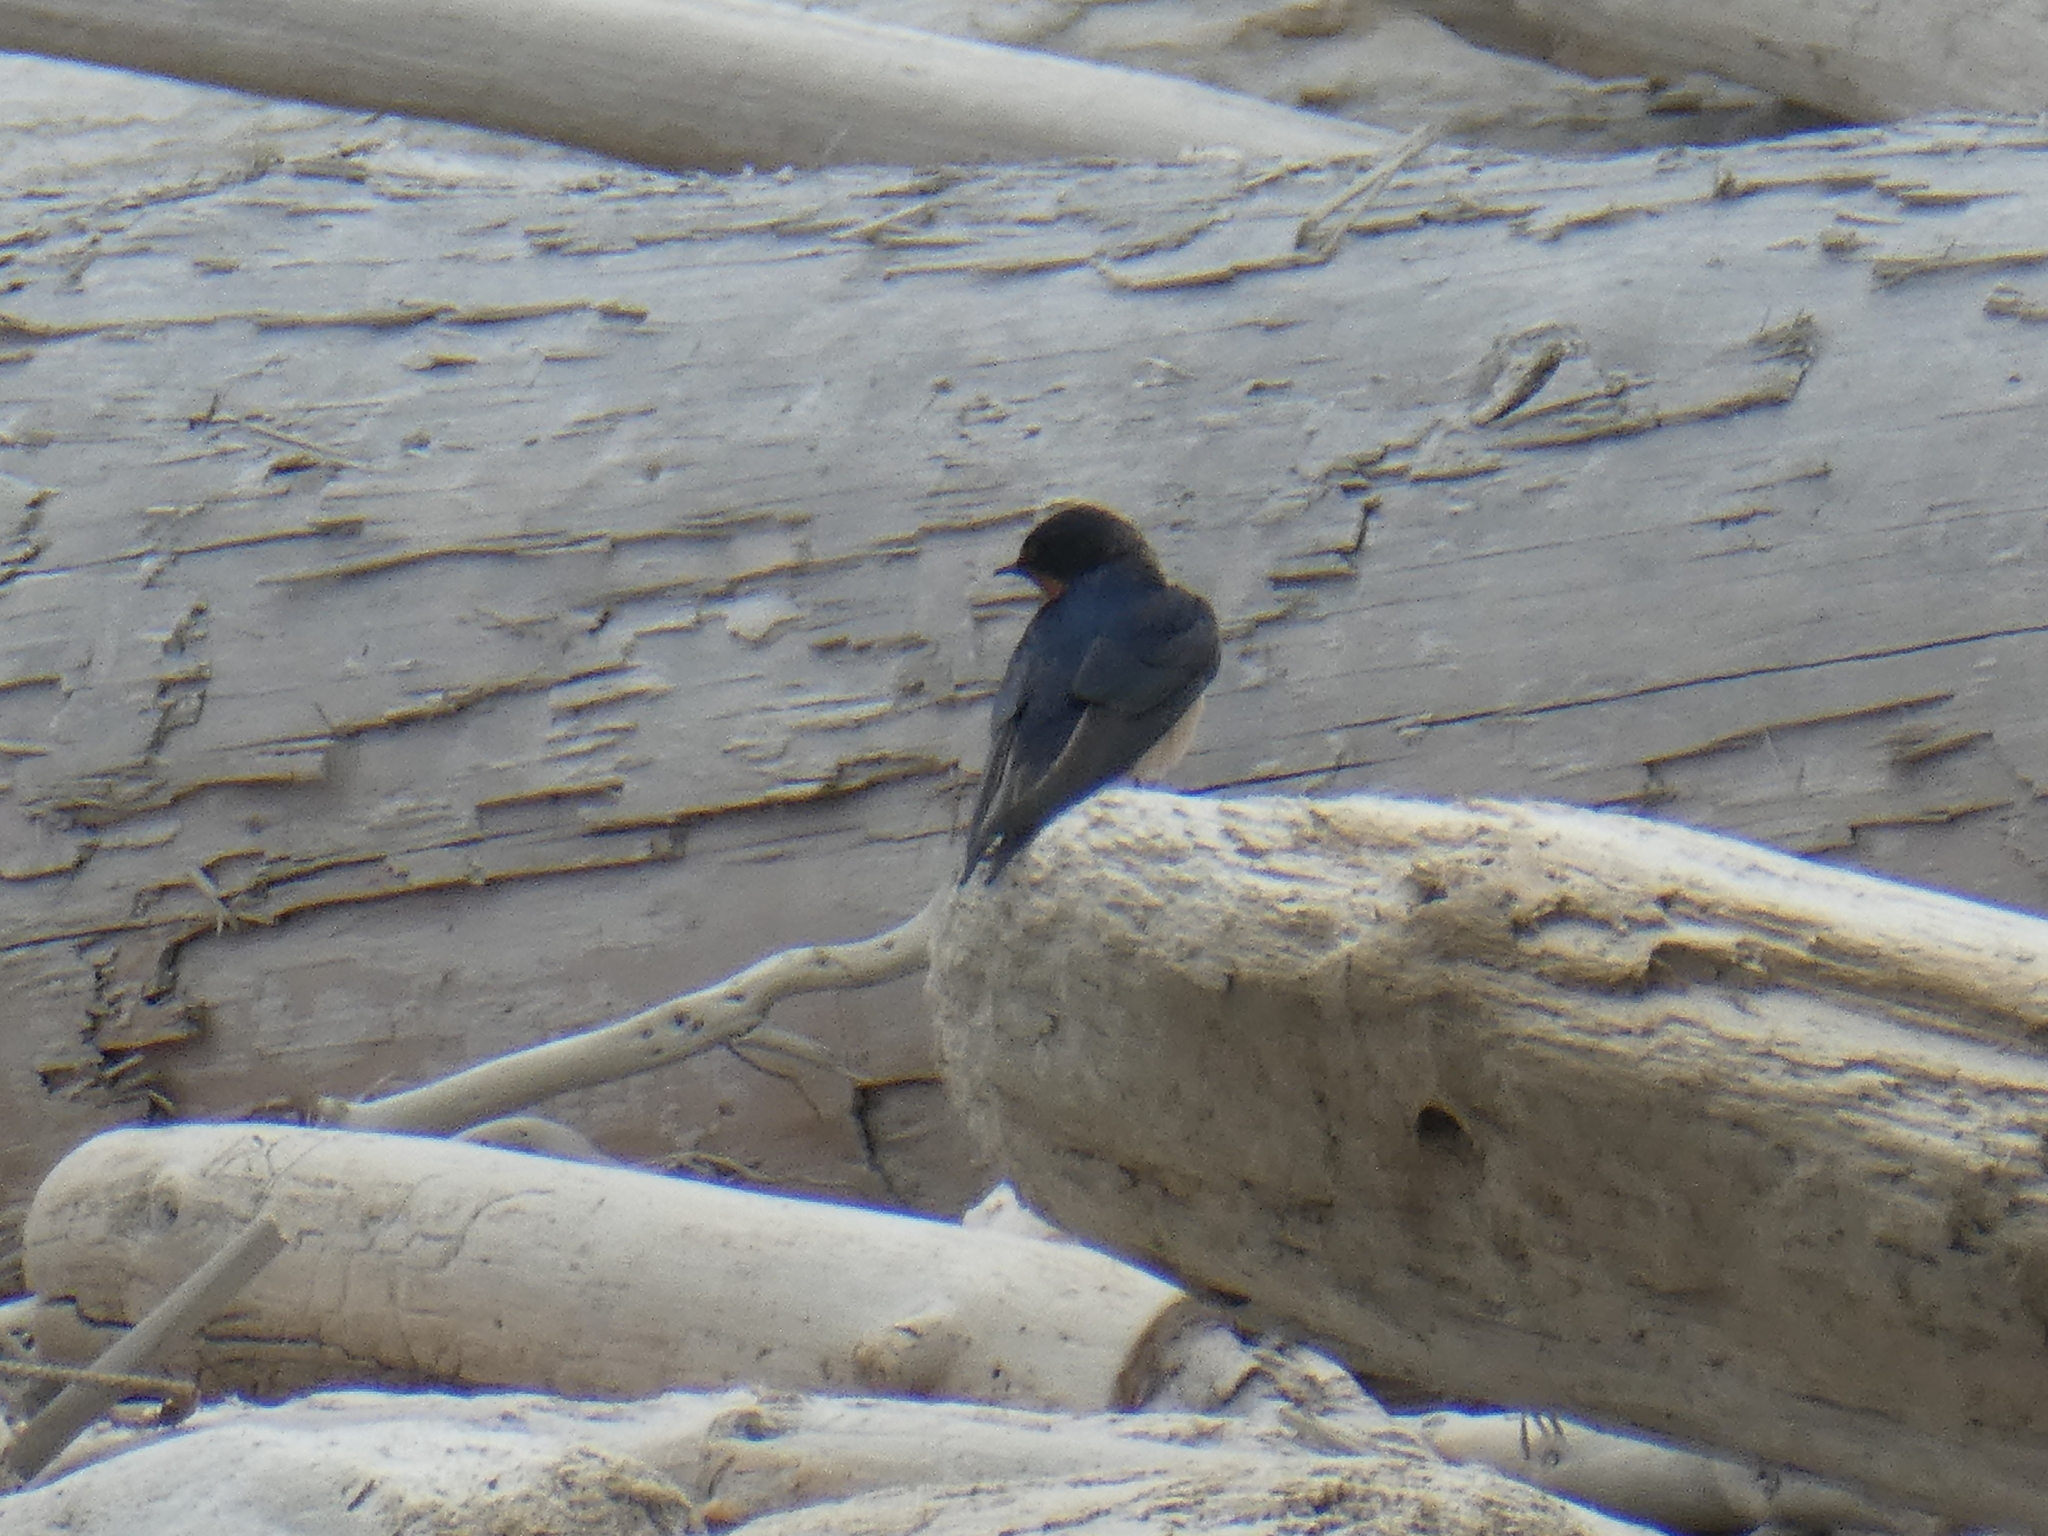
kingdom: Animalia
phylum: Chordata
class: Aves
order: Passeriformes
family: Hirundinidae
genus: Hirundo
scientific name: Hirundo rustica
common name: Barn swallow
